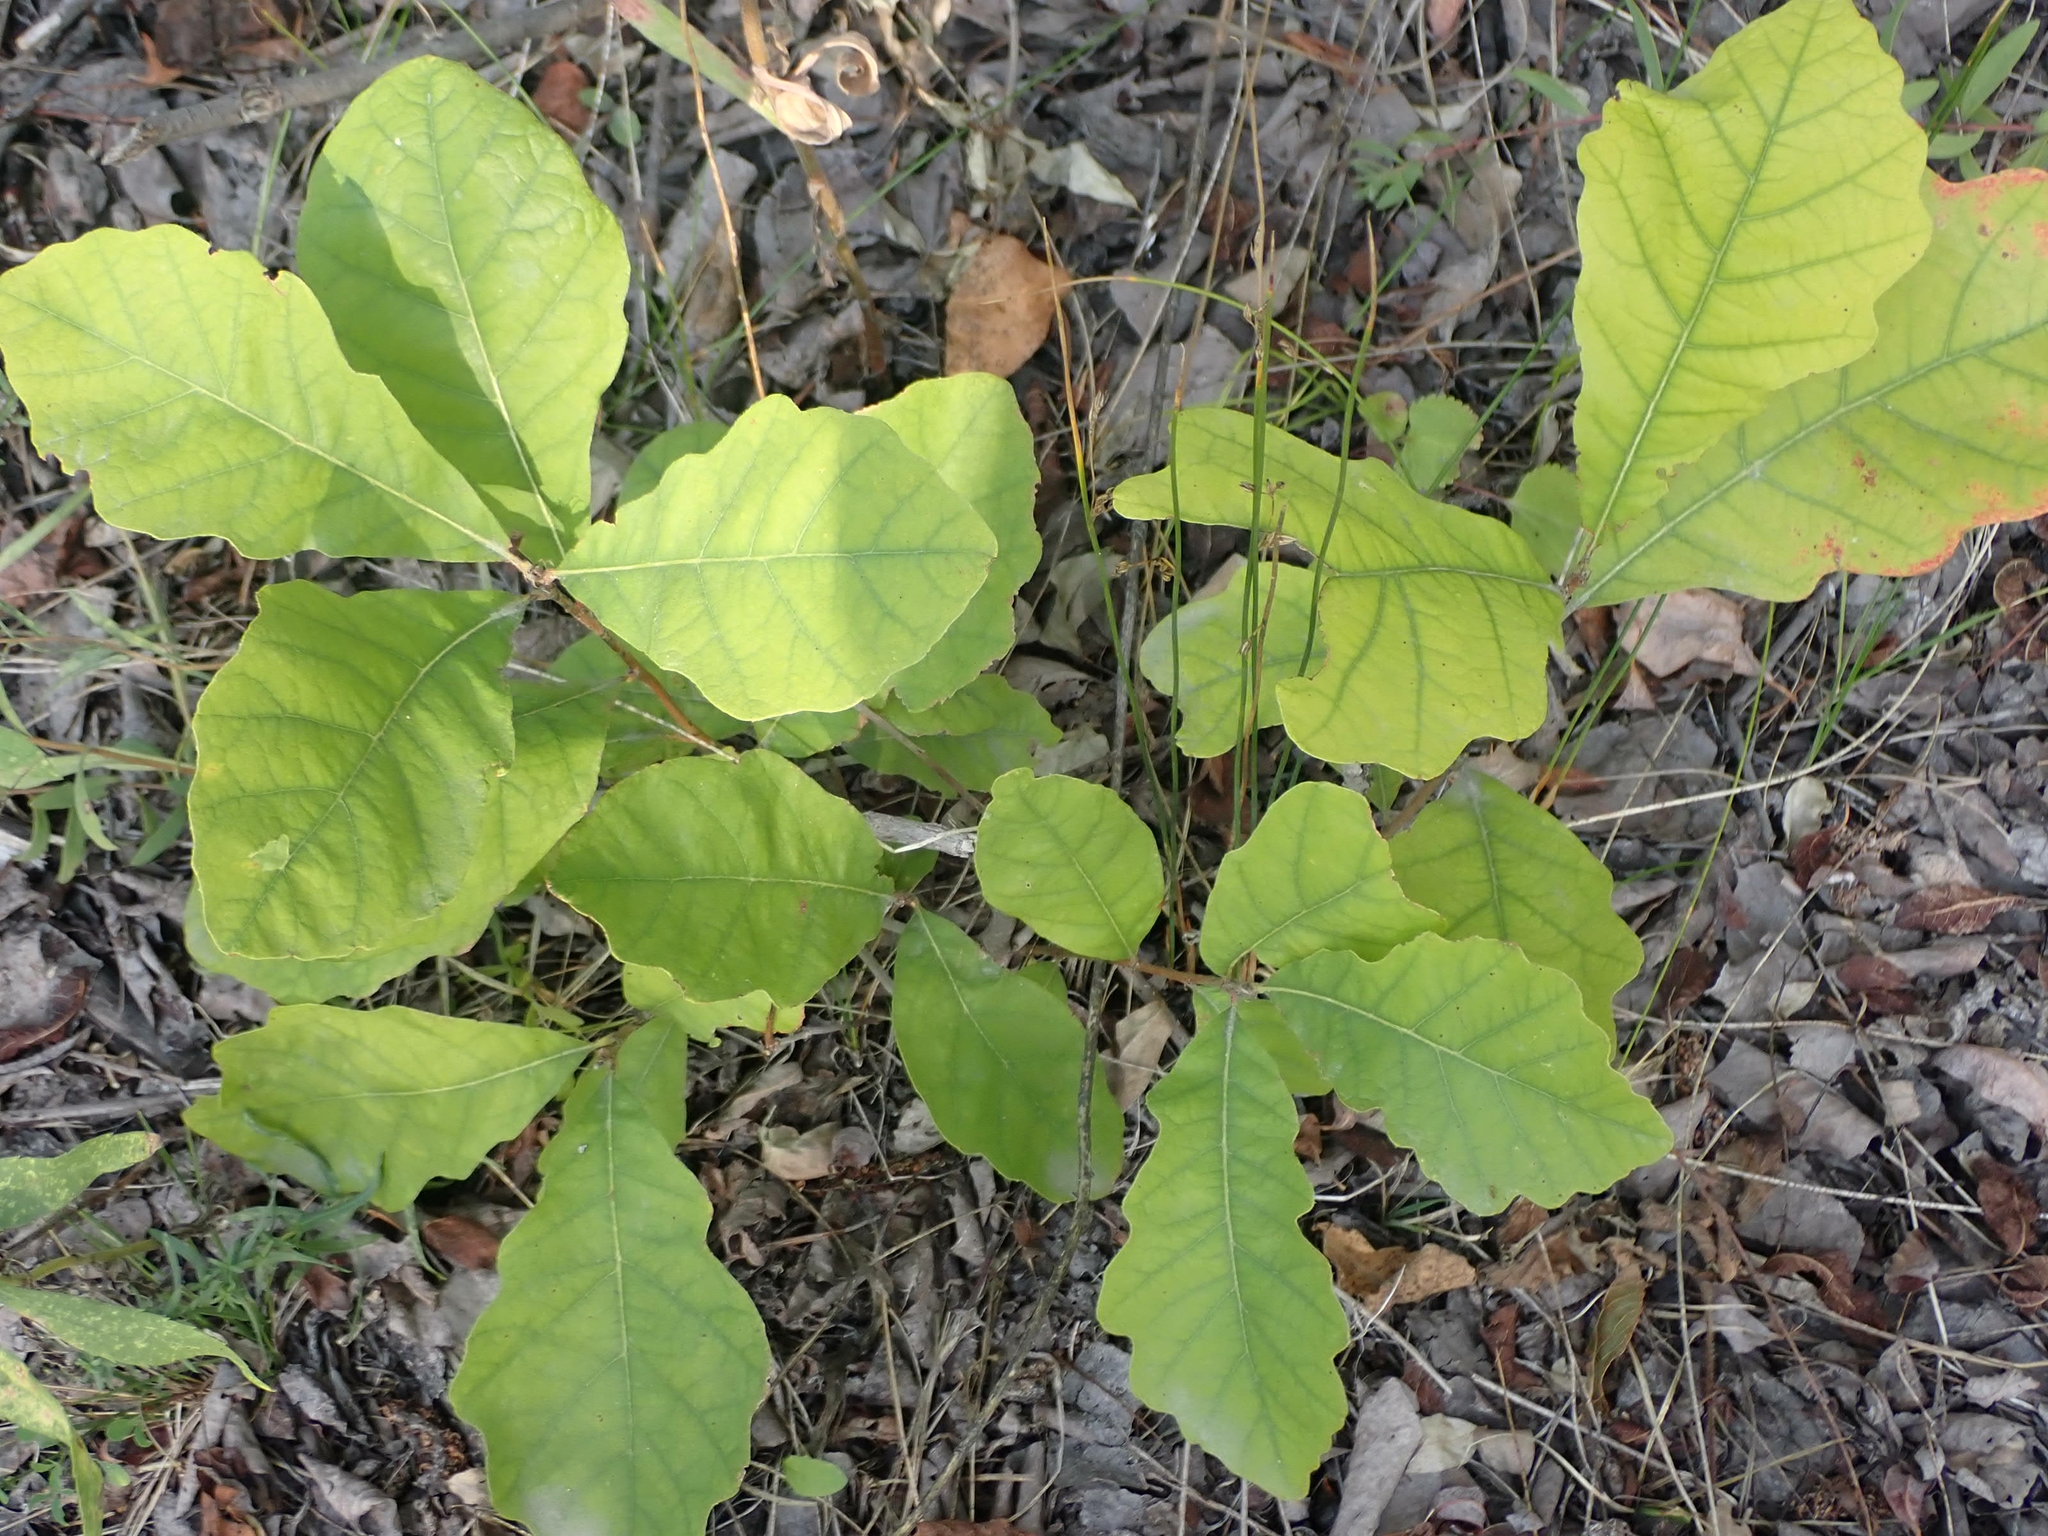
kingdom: Plantae
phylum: Tracheophyta
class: Magnoliopsida
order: Fagales
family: Fagaceae
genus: Quercus
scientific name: Quercus macrocarpa
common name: Bur oak
